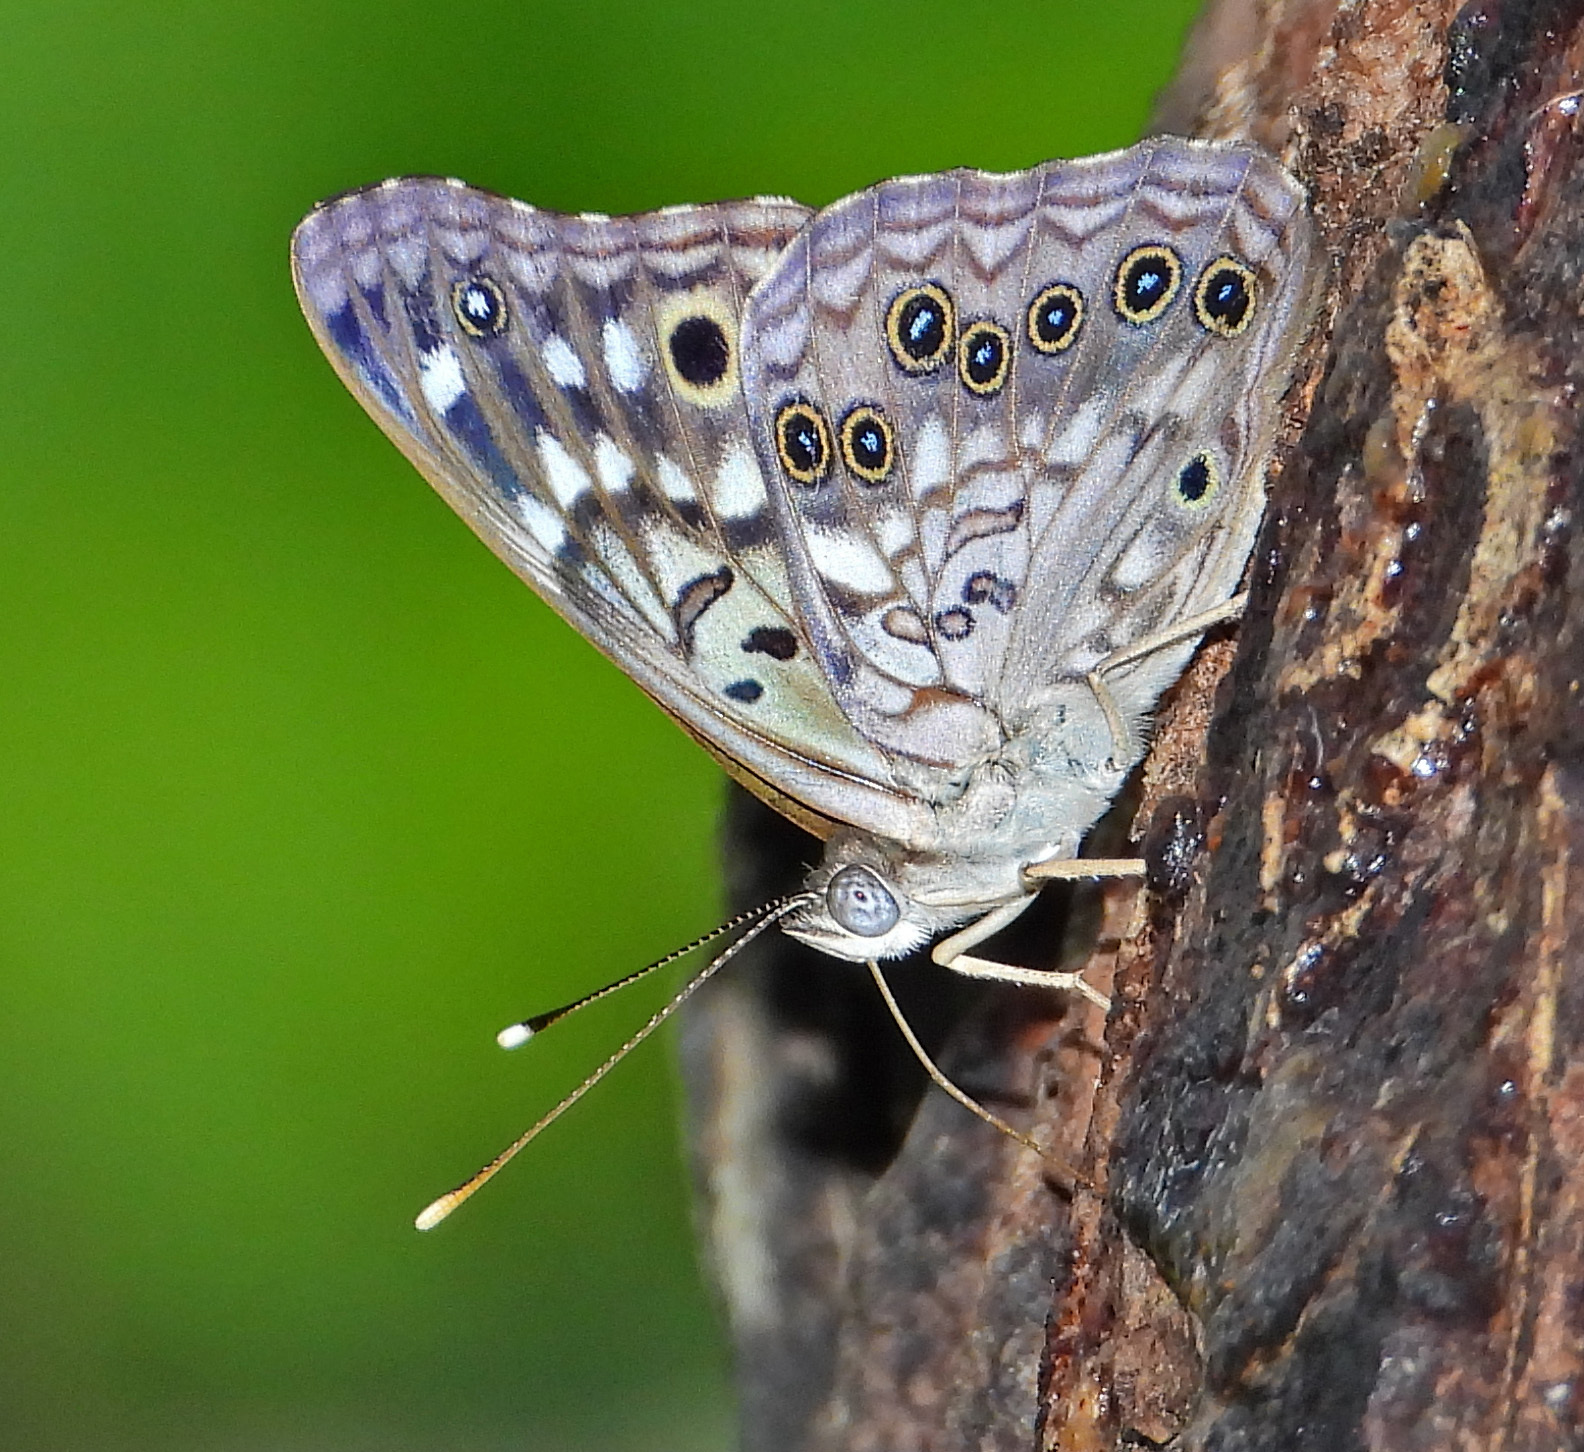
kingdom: Animalia
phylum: Arthropoda
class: Insecta
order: Lepidoptera
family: Nymphalidae
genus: Asterocampa
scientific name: Asterocampa celtis
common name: Hackberry emperor
